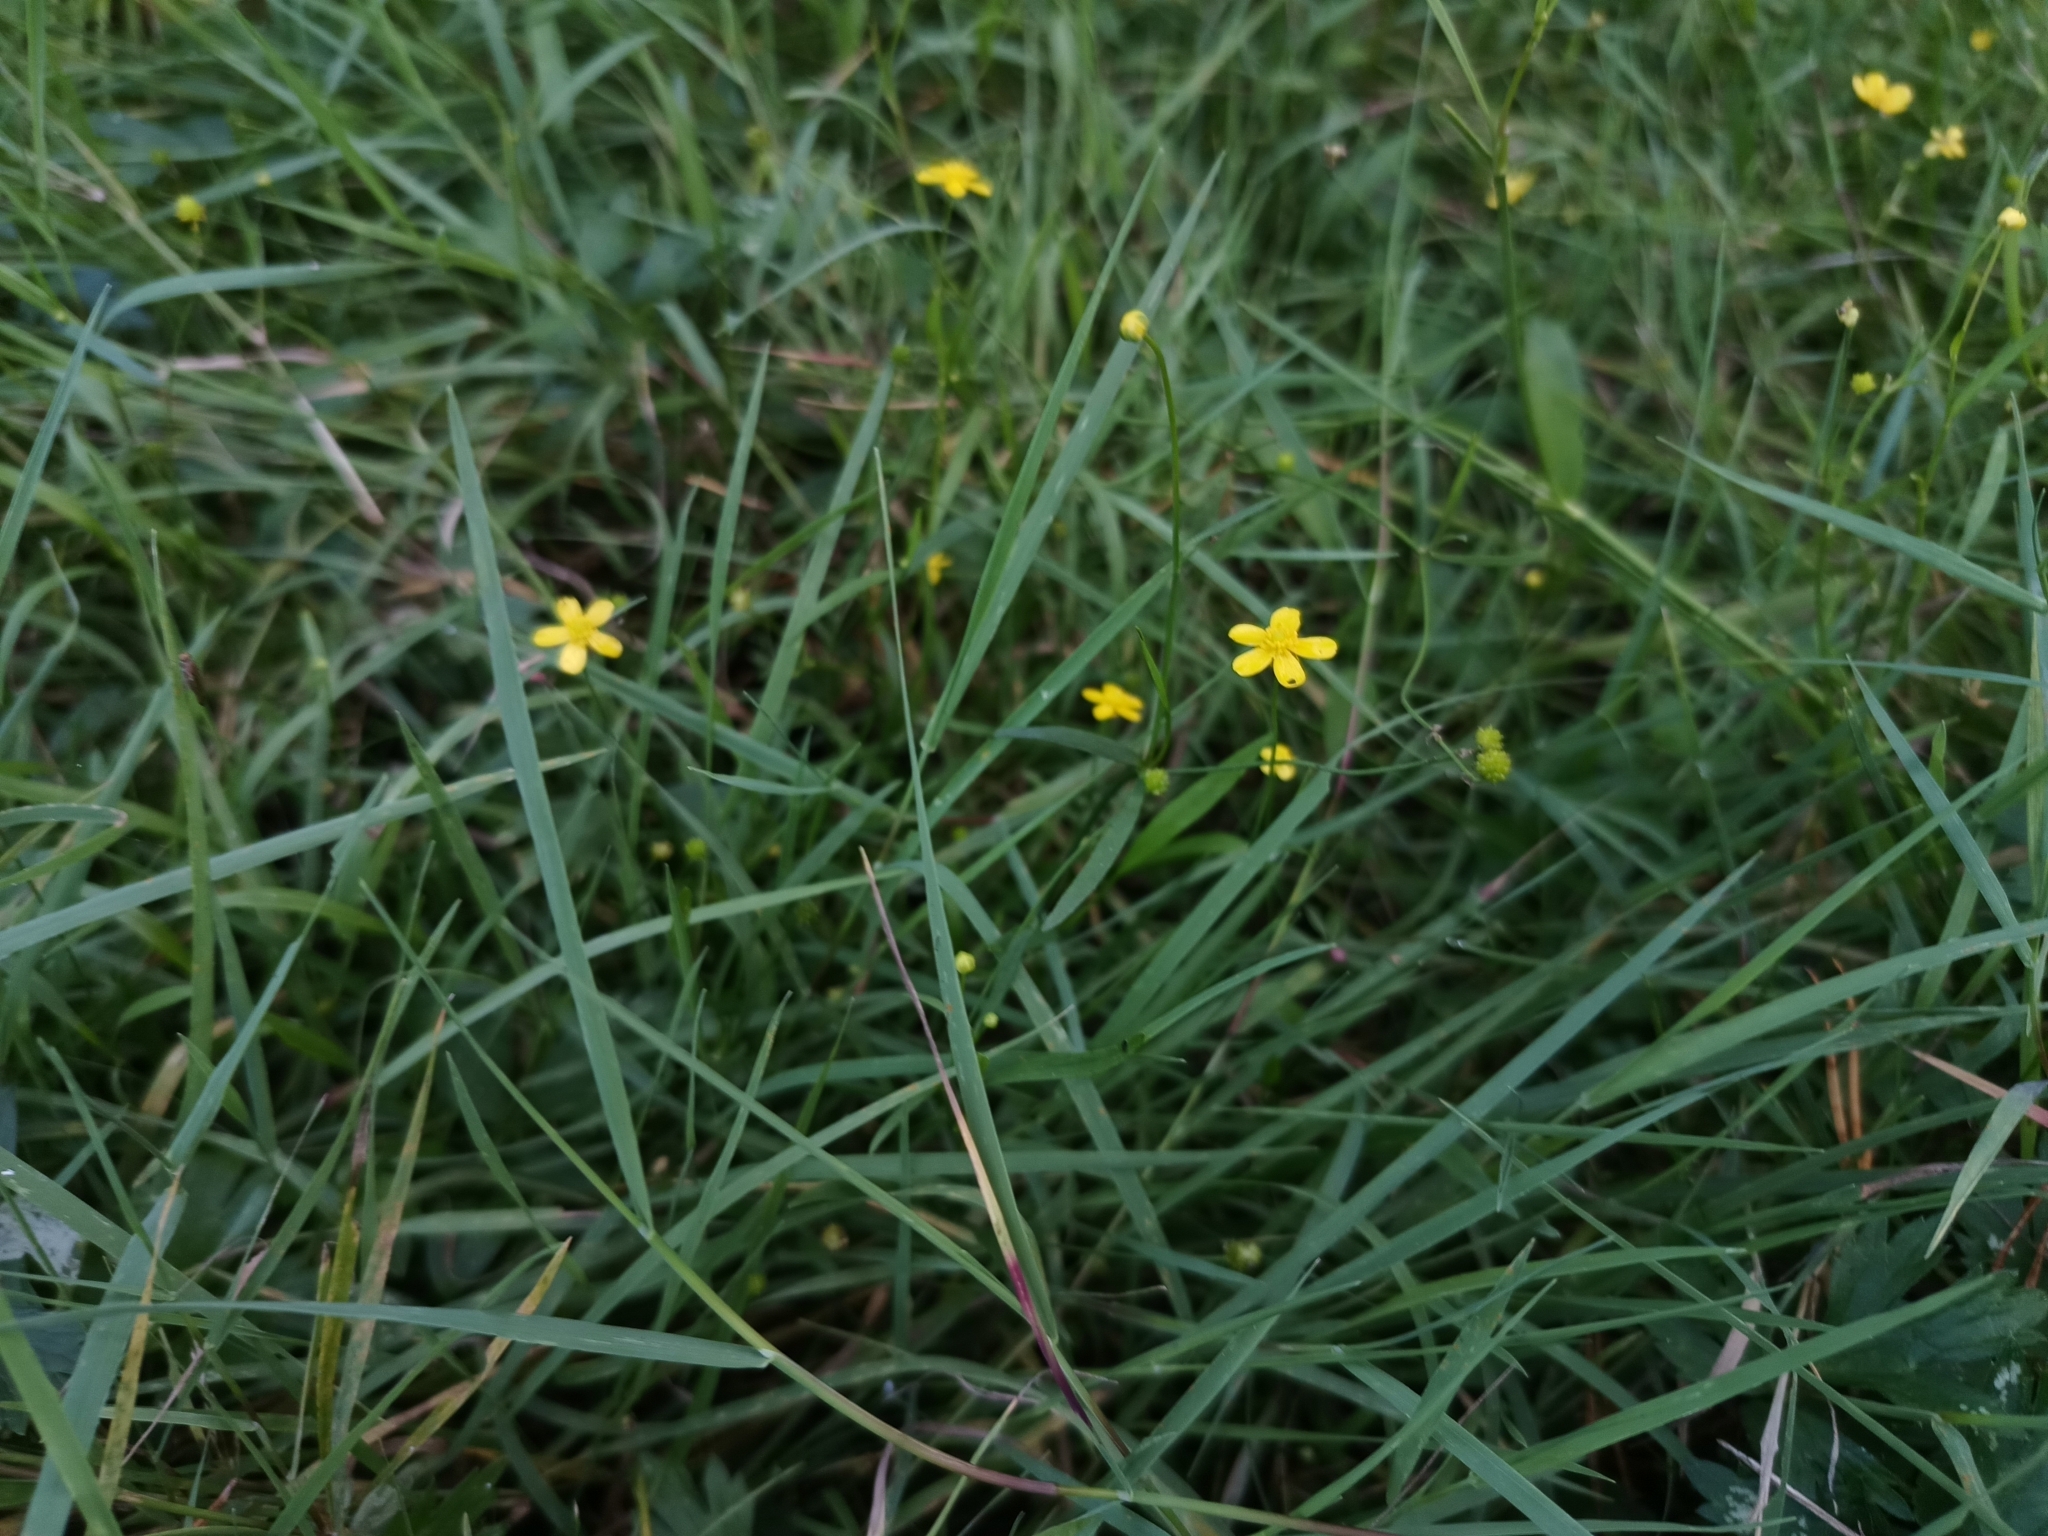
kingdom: Plantae
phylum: Tracheophyta
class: Magnoliopsida
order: Ranunculales
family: Ranunculaceae
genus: Ranunculus
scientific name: Ranunculus flammula
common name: Lesser spearwort
